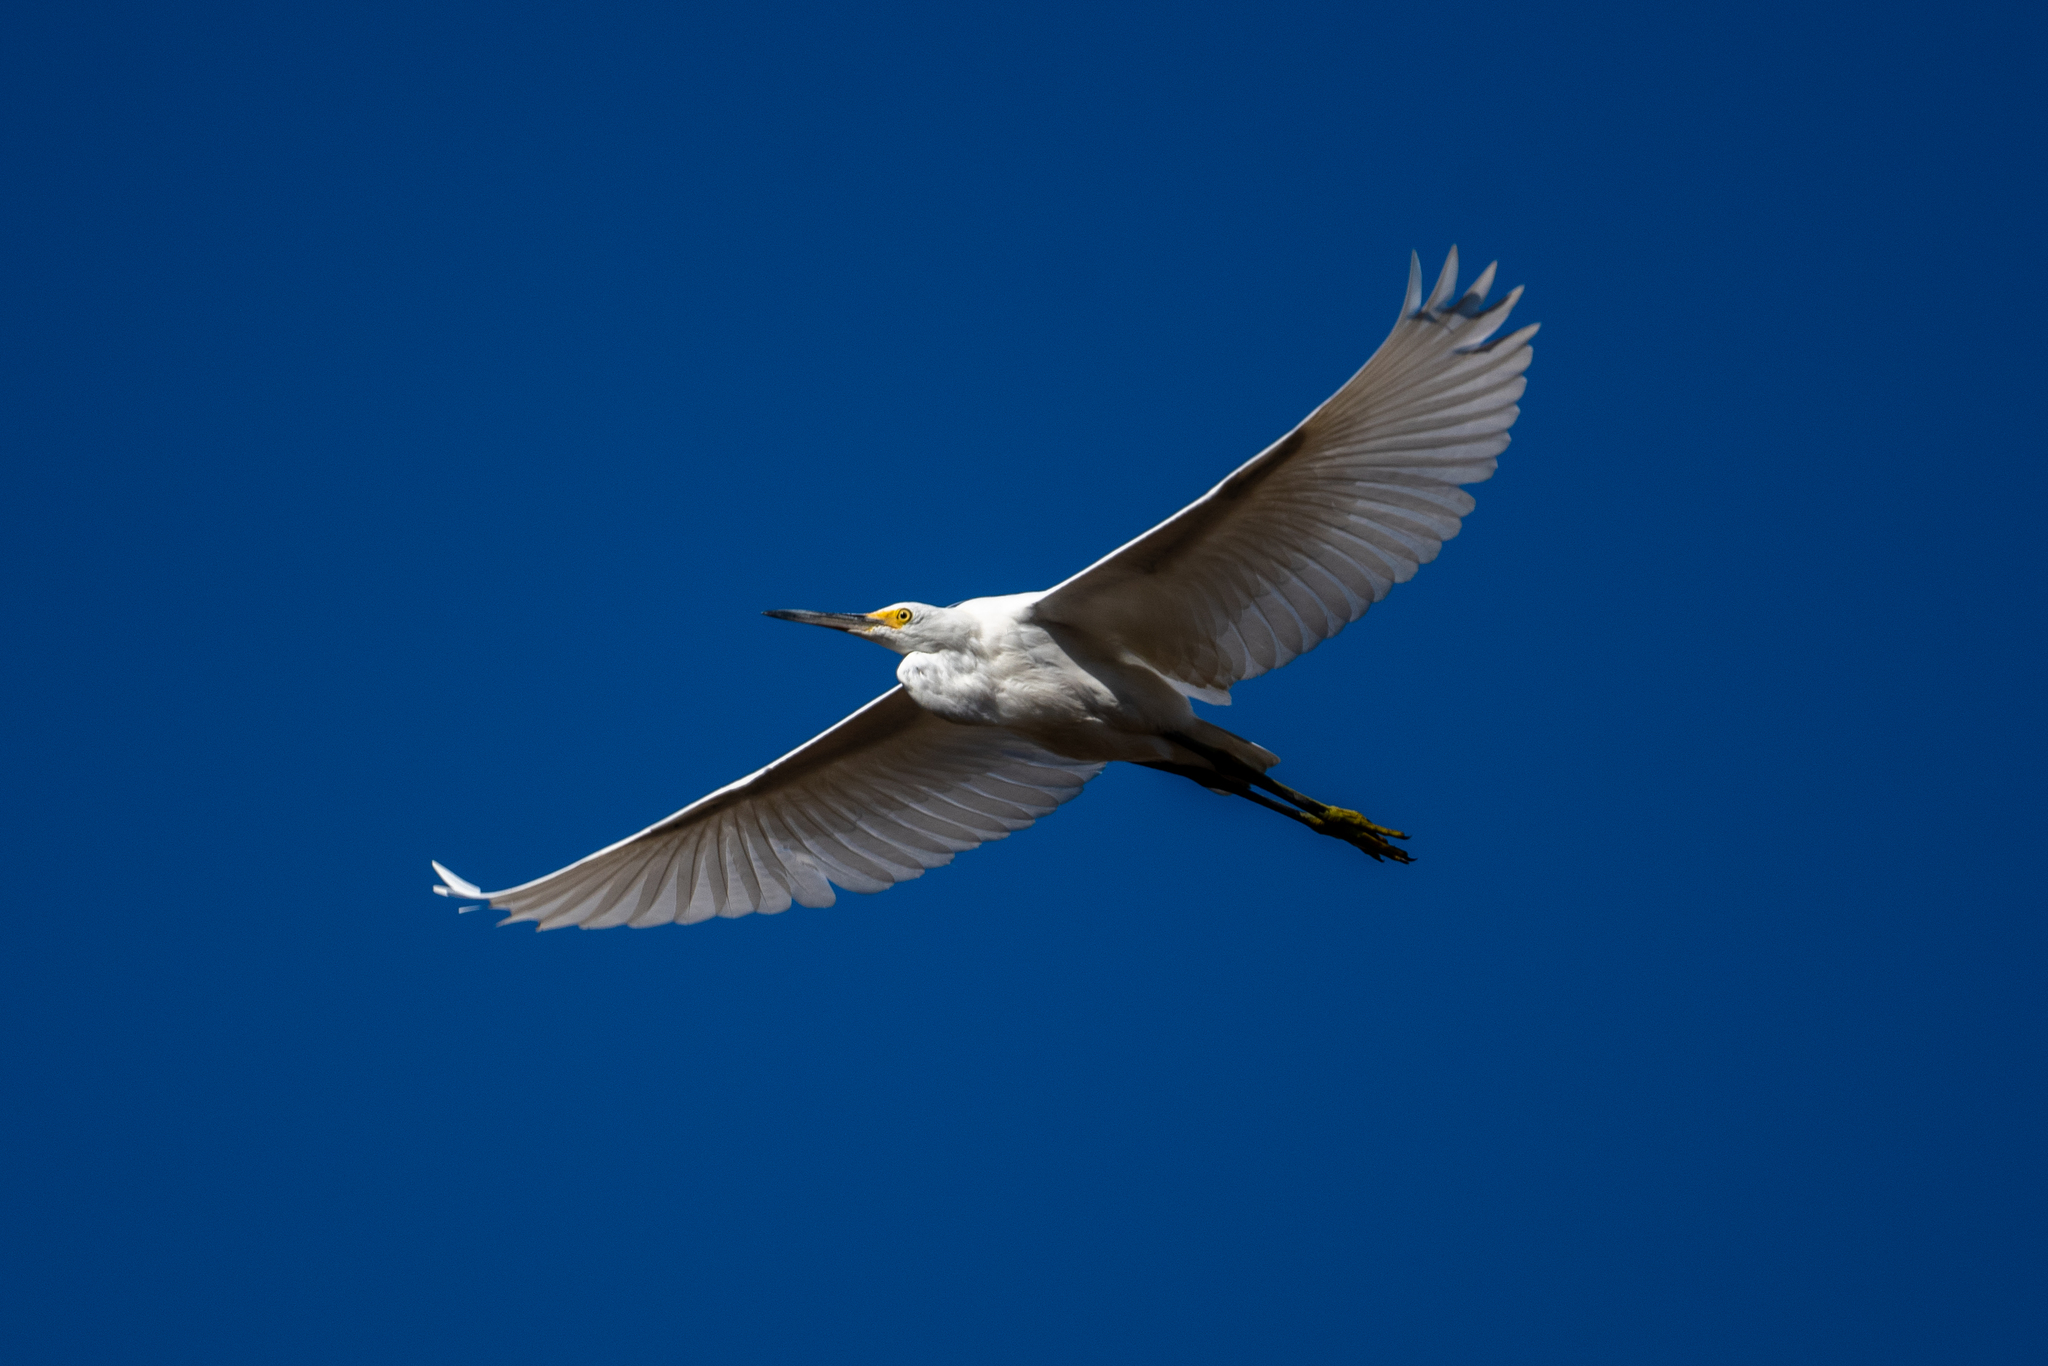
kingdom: Animalia
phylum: Chordata
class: Aves
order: Pelecaniformes
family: Ardeidae
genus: Ardea
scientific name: Ardea alba
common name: Great egret
